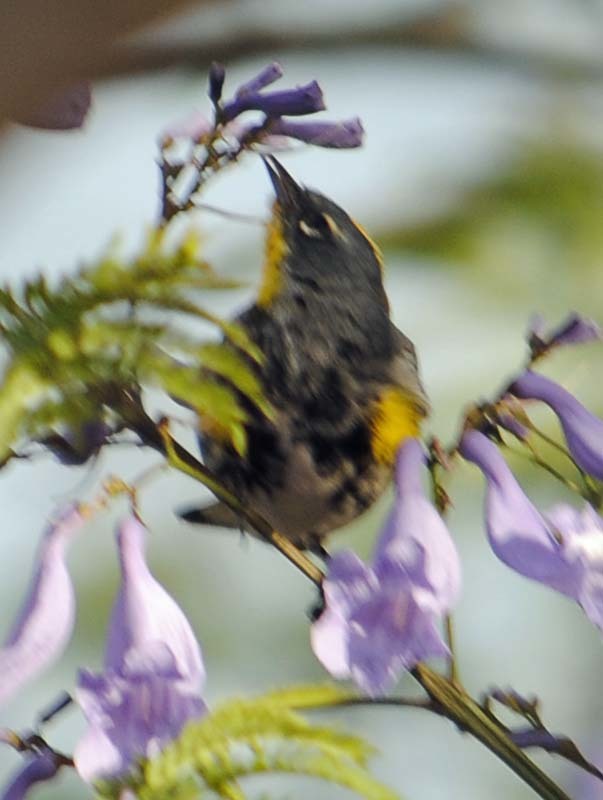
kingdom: Animalia
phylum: Chordata
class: Aves
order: Passeriformes
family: Parulidae
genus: Setophaga
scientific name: Setophaga auduboni
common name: Audubon's warbler
